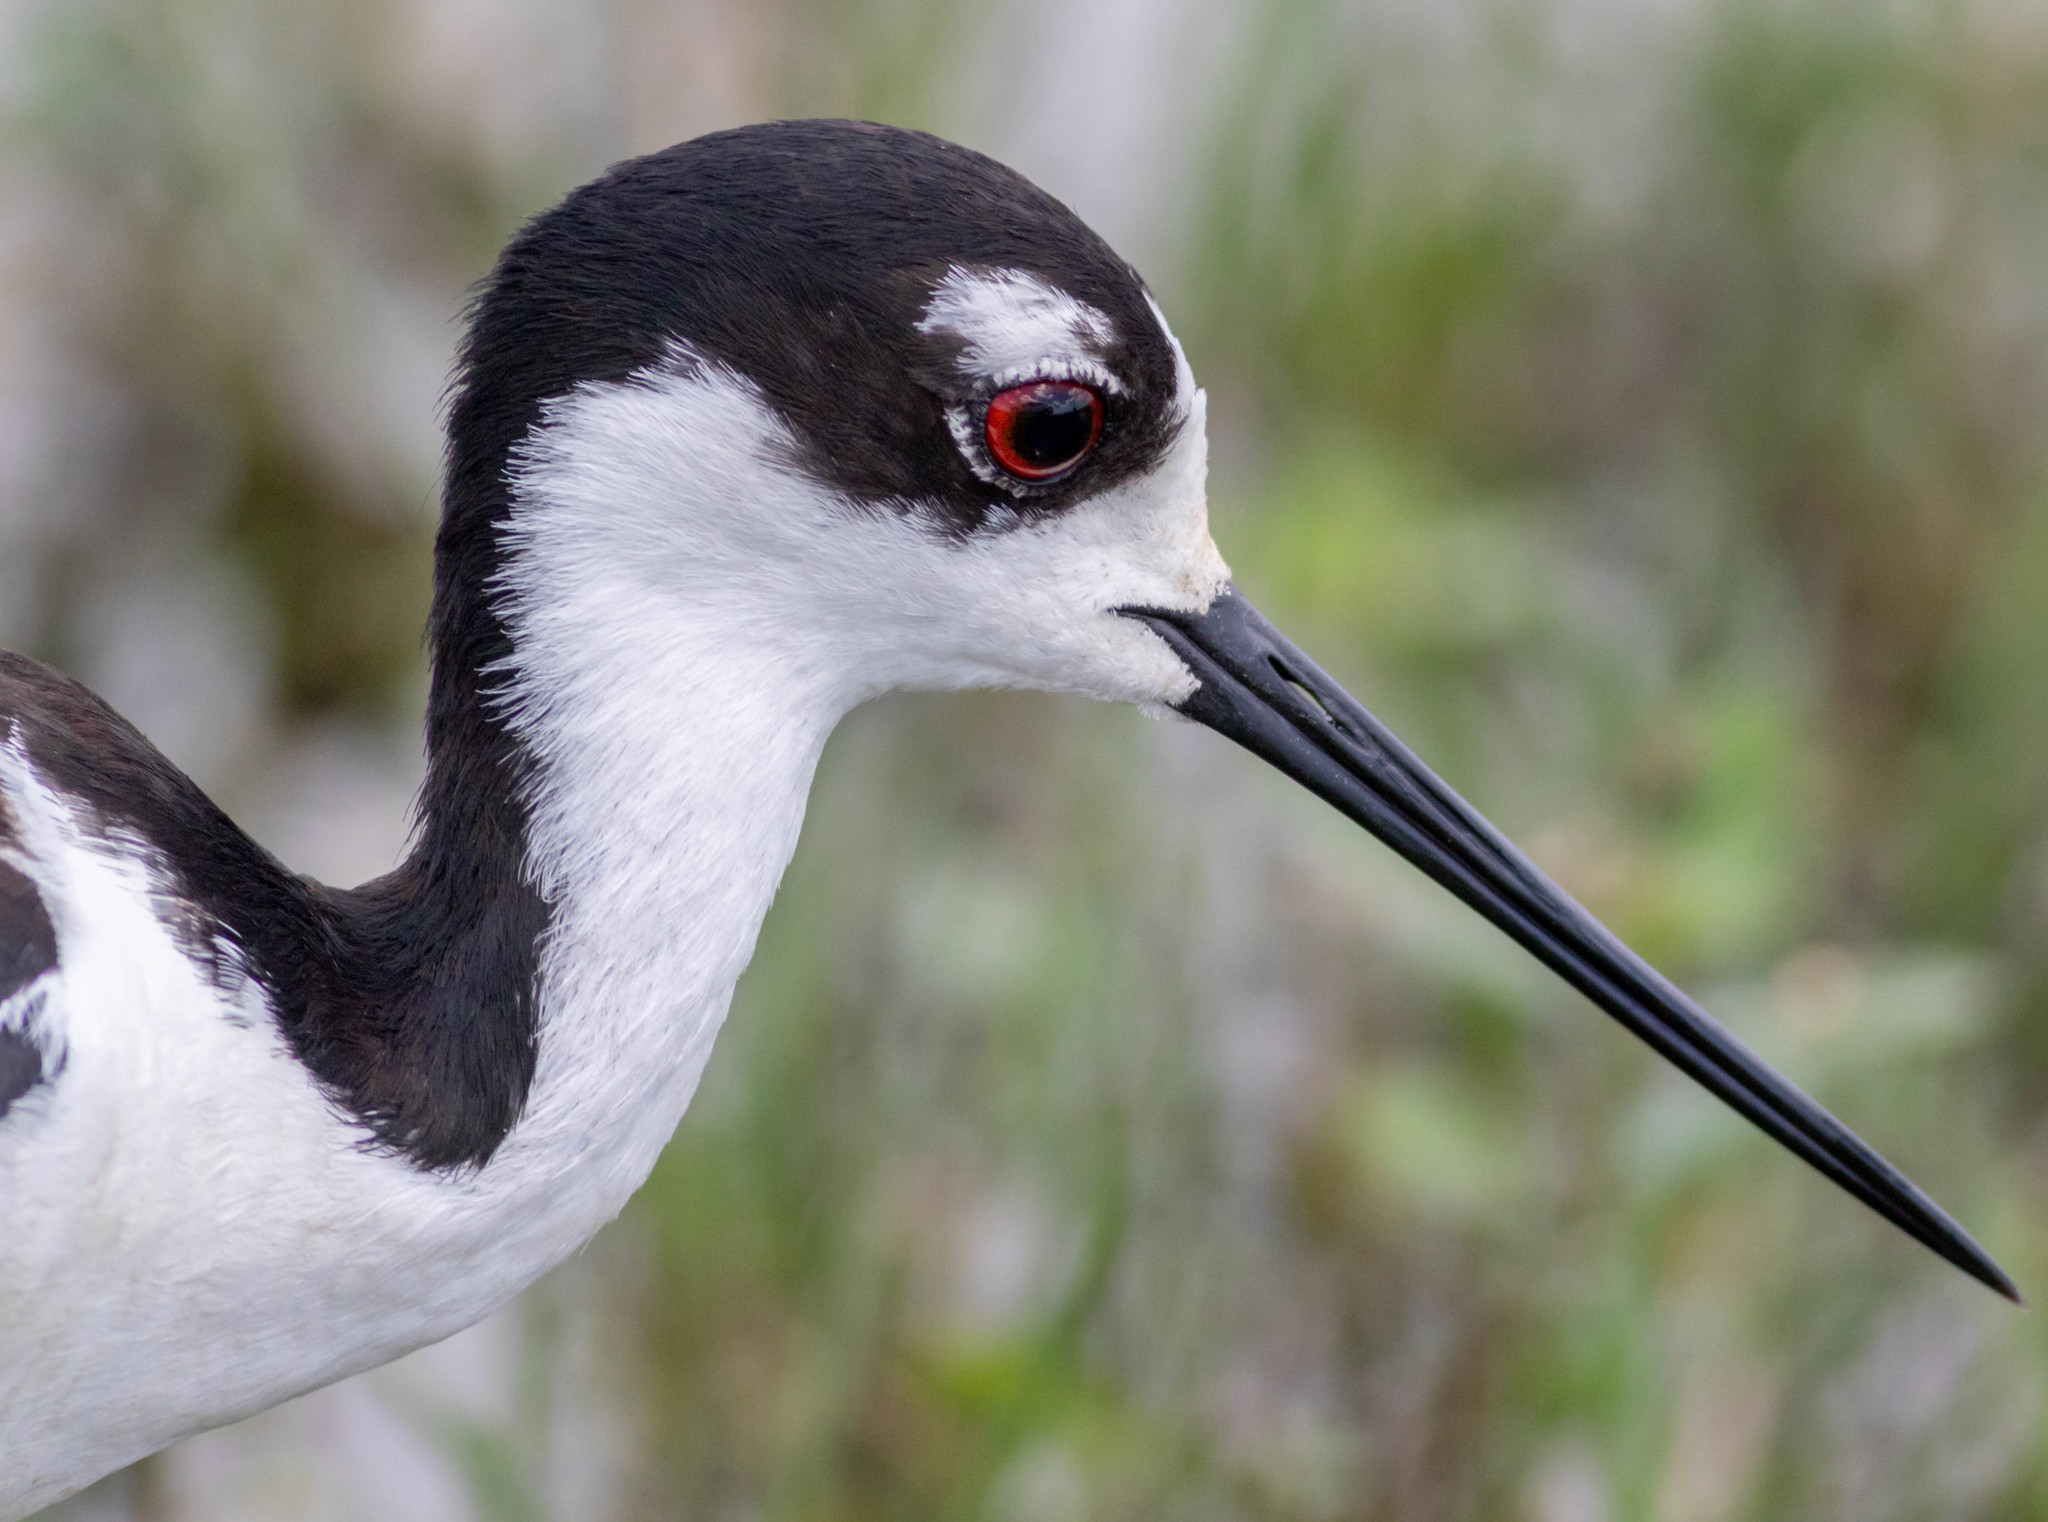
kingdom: Animalia
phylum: Chordata
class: Aves
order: Charadriiformes
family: Recurvirostridae
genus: Himantopus
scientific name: Himantopus mexicanus
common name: Black-necked stilt
